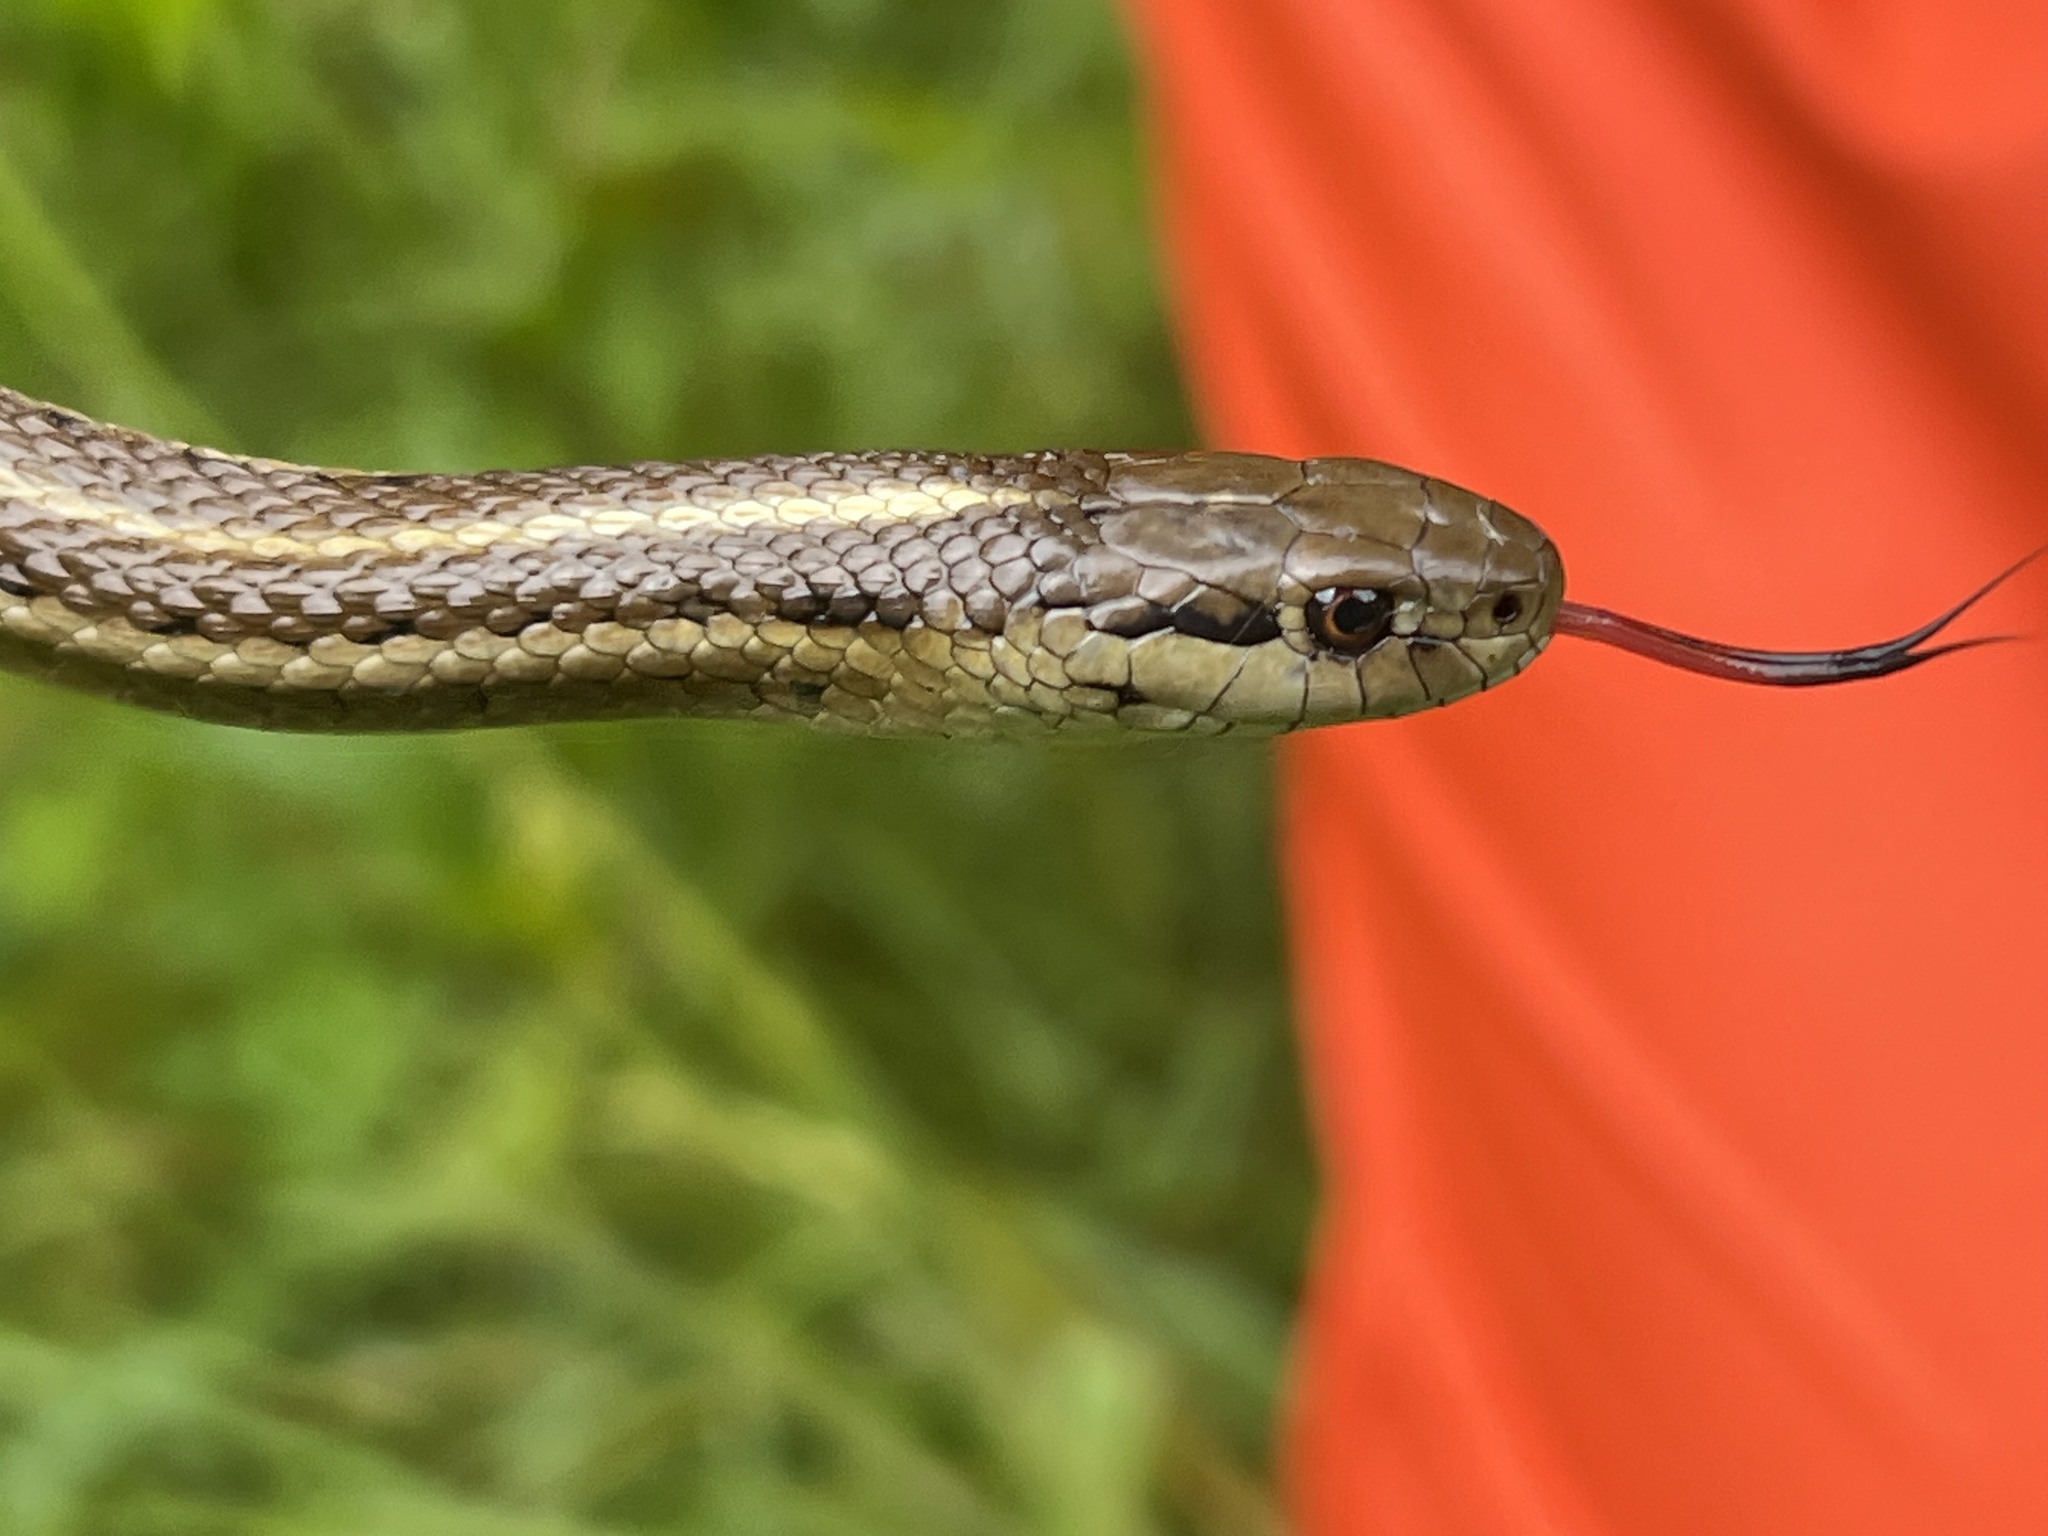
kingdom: Animalia
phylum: Chordata
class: Squamata
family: Colubridae
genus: Thamnophis
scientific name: Thamnophis ordinoides
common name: Northwestern garter snake
